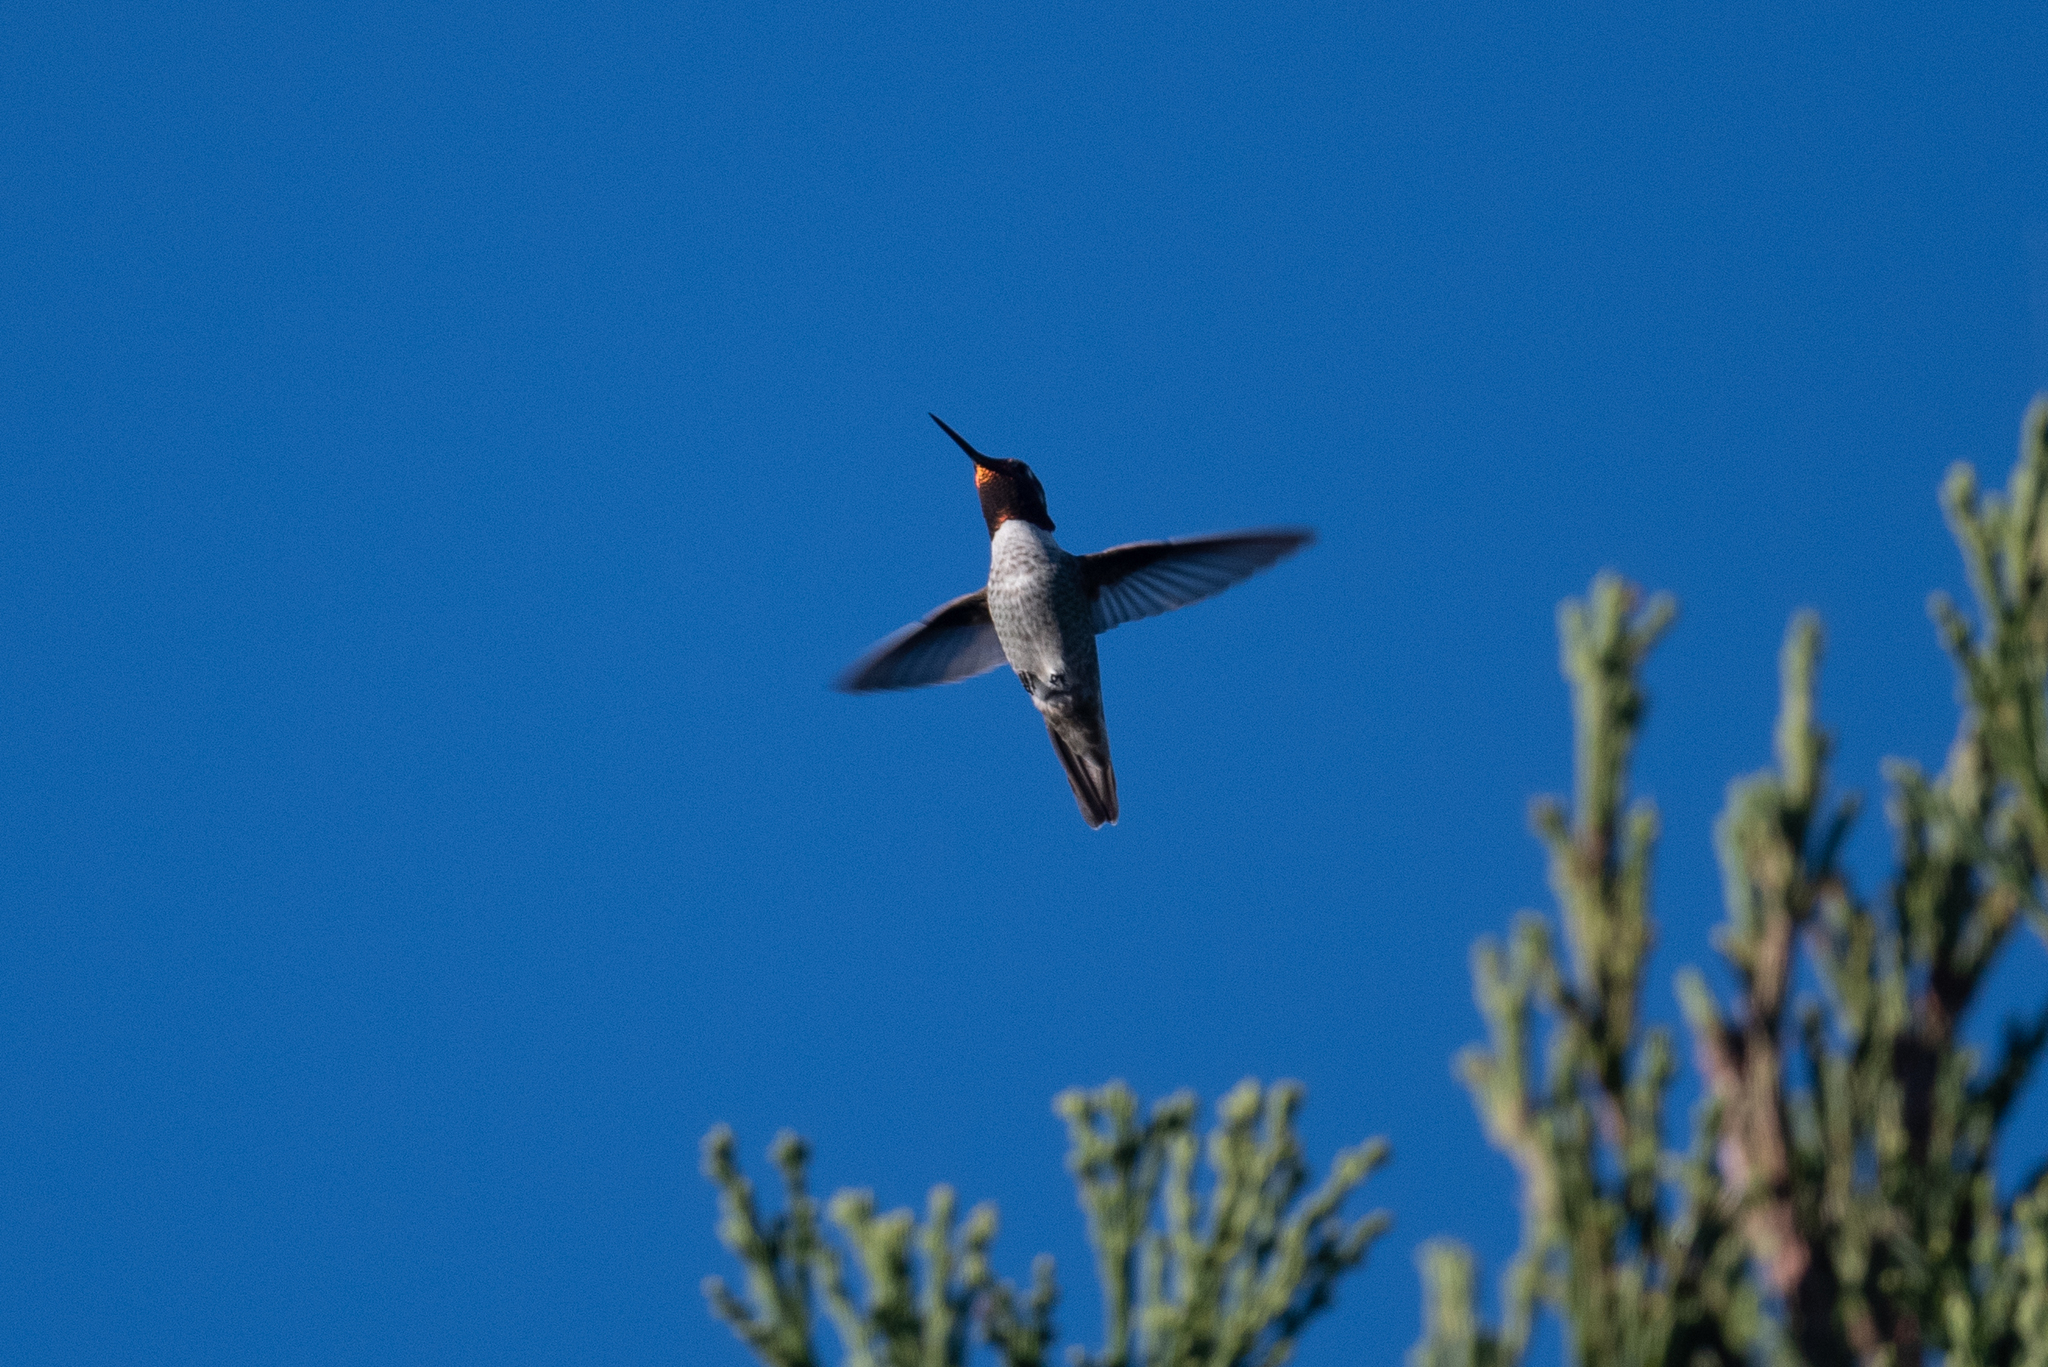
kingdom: Animalia
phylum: Chordata
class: Aves
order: Apodiformes
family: Trochilidae
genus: Calypte
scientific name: Calypte anna
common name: Anna's hummingbird
